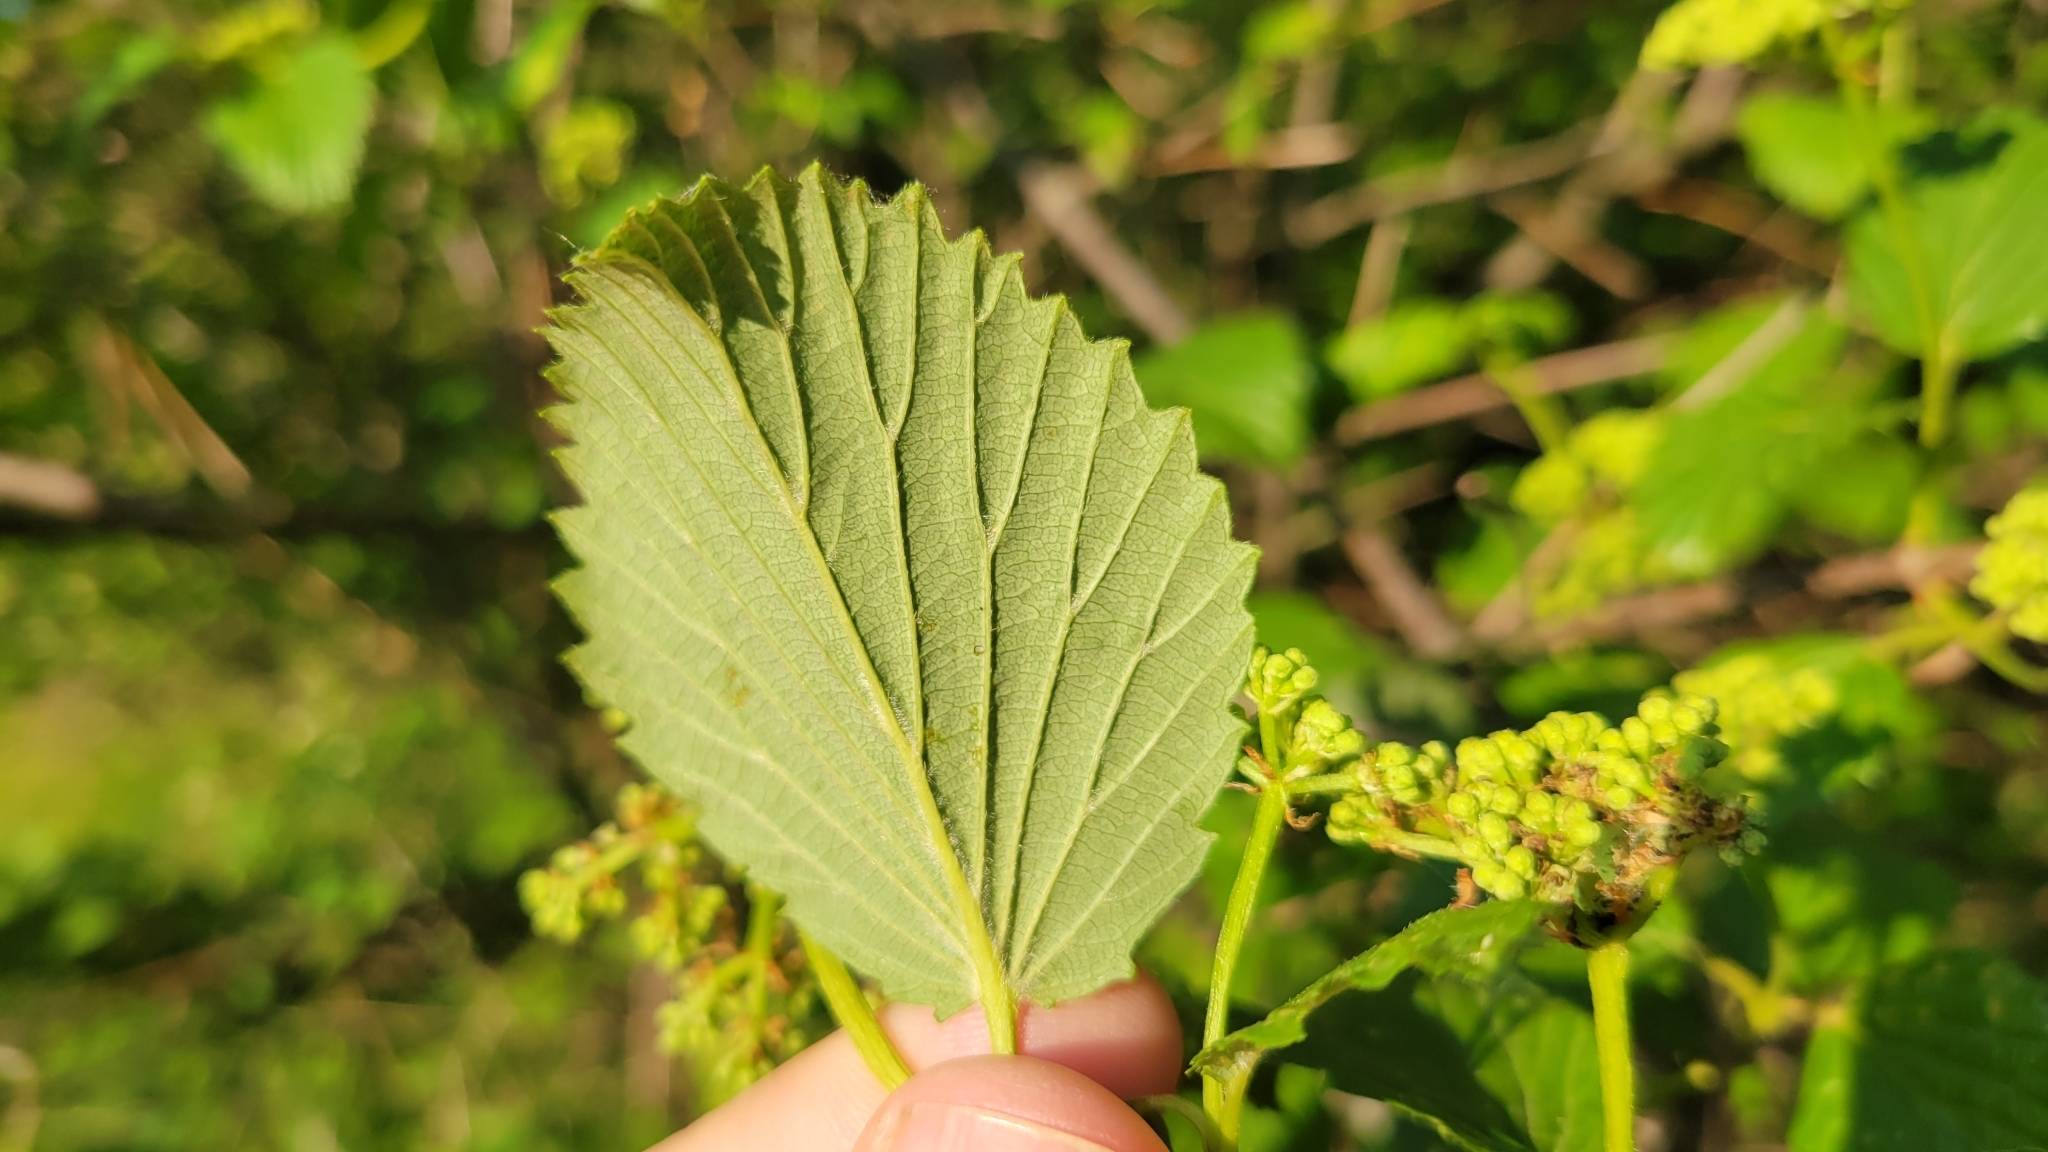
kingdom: Plantae
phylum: Tracheophyta
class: Magnoliopsida
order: Dipsacales
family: Viburnaceae
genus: Viburnum
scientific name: Viburnum dentatum
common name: Arrow-wood
